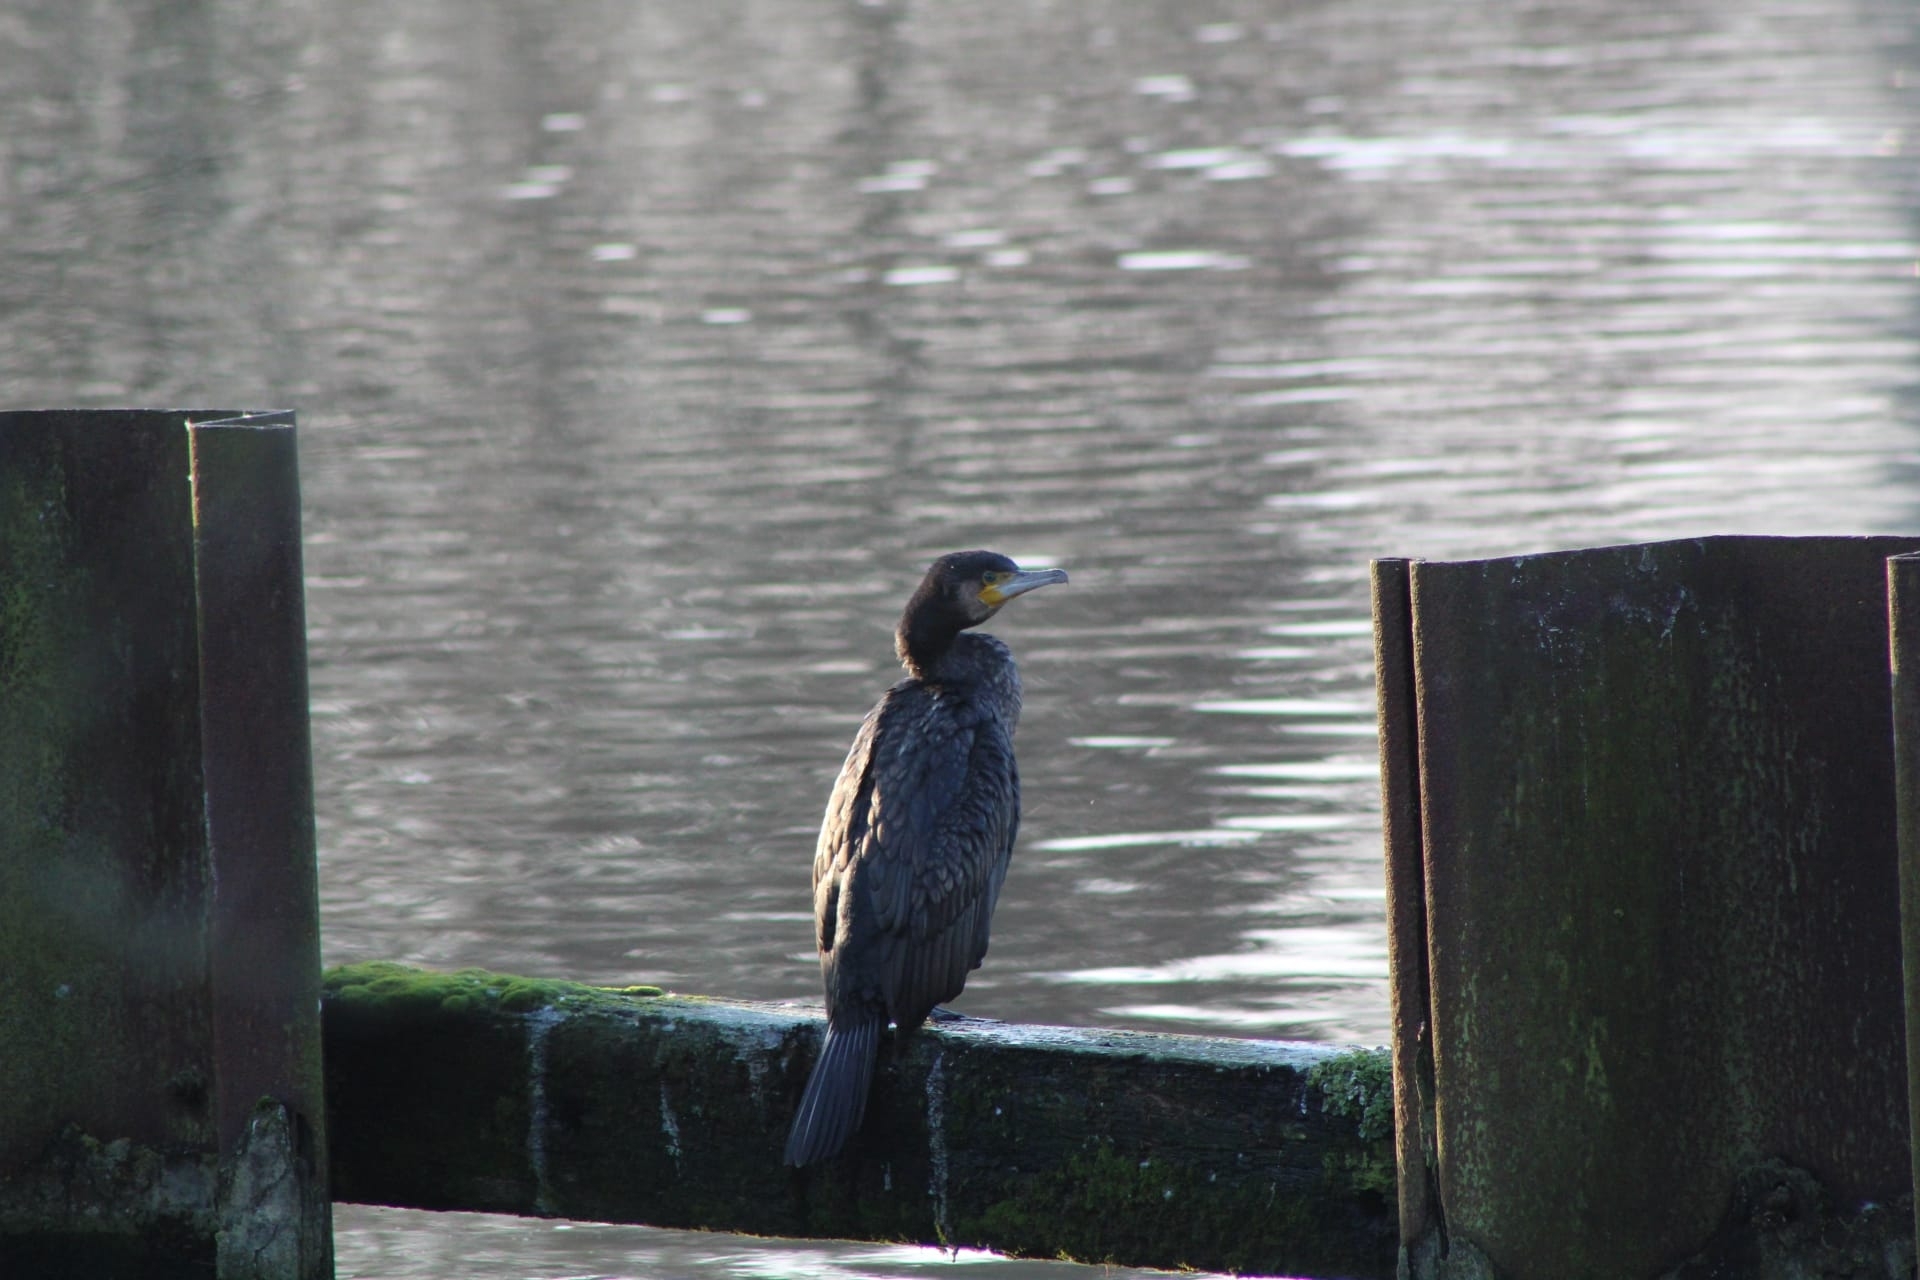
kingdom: Animalia
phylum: Chordata
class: Aves
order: Suliformes
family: Phalacrocoracidae
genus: Phalacrocorax
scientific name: Phalacrocorax carbo
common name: Great cormorant
